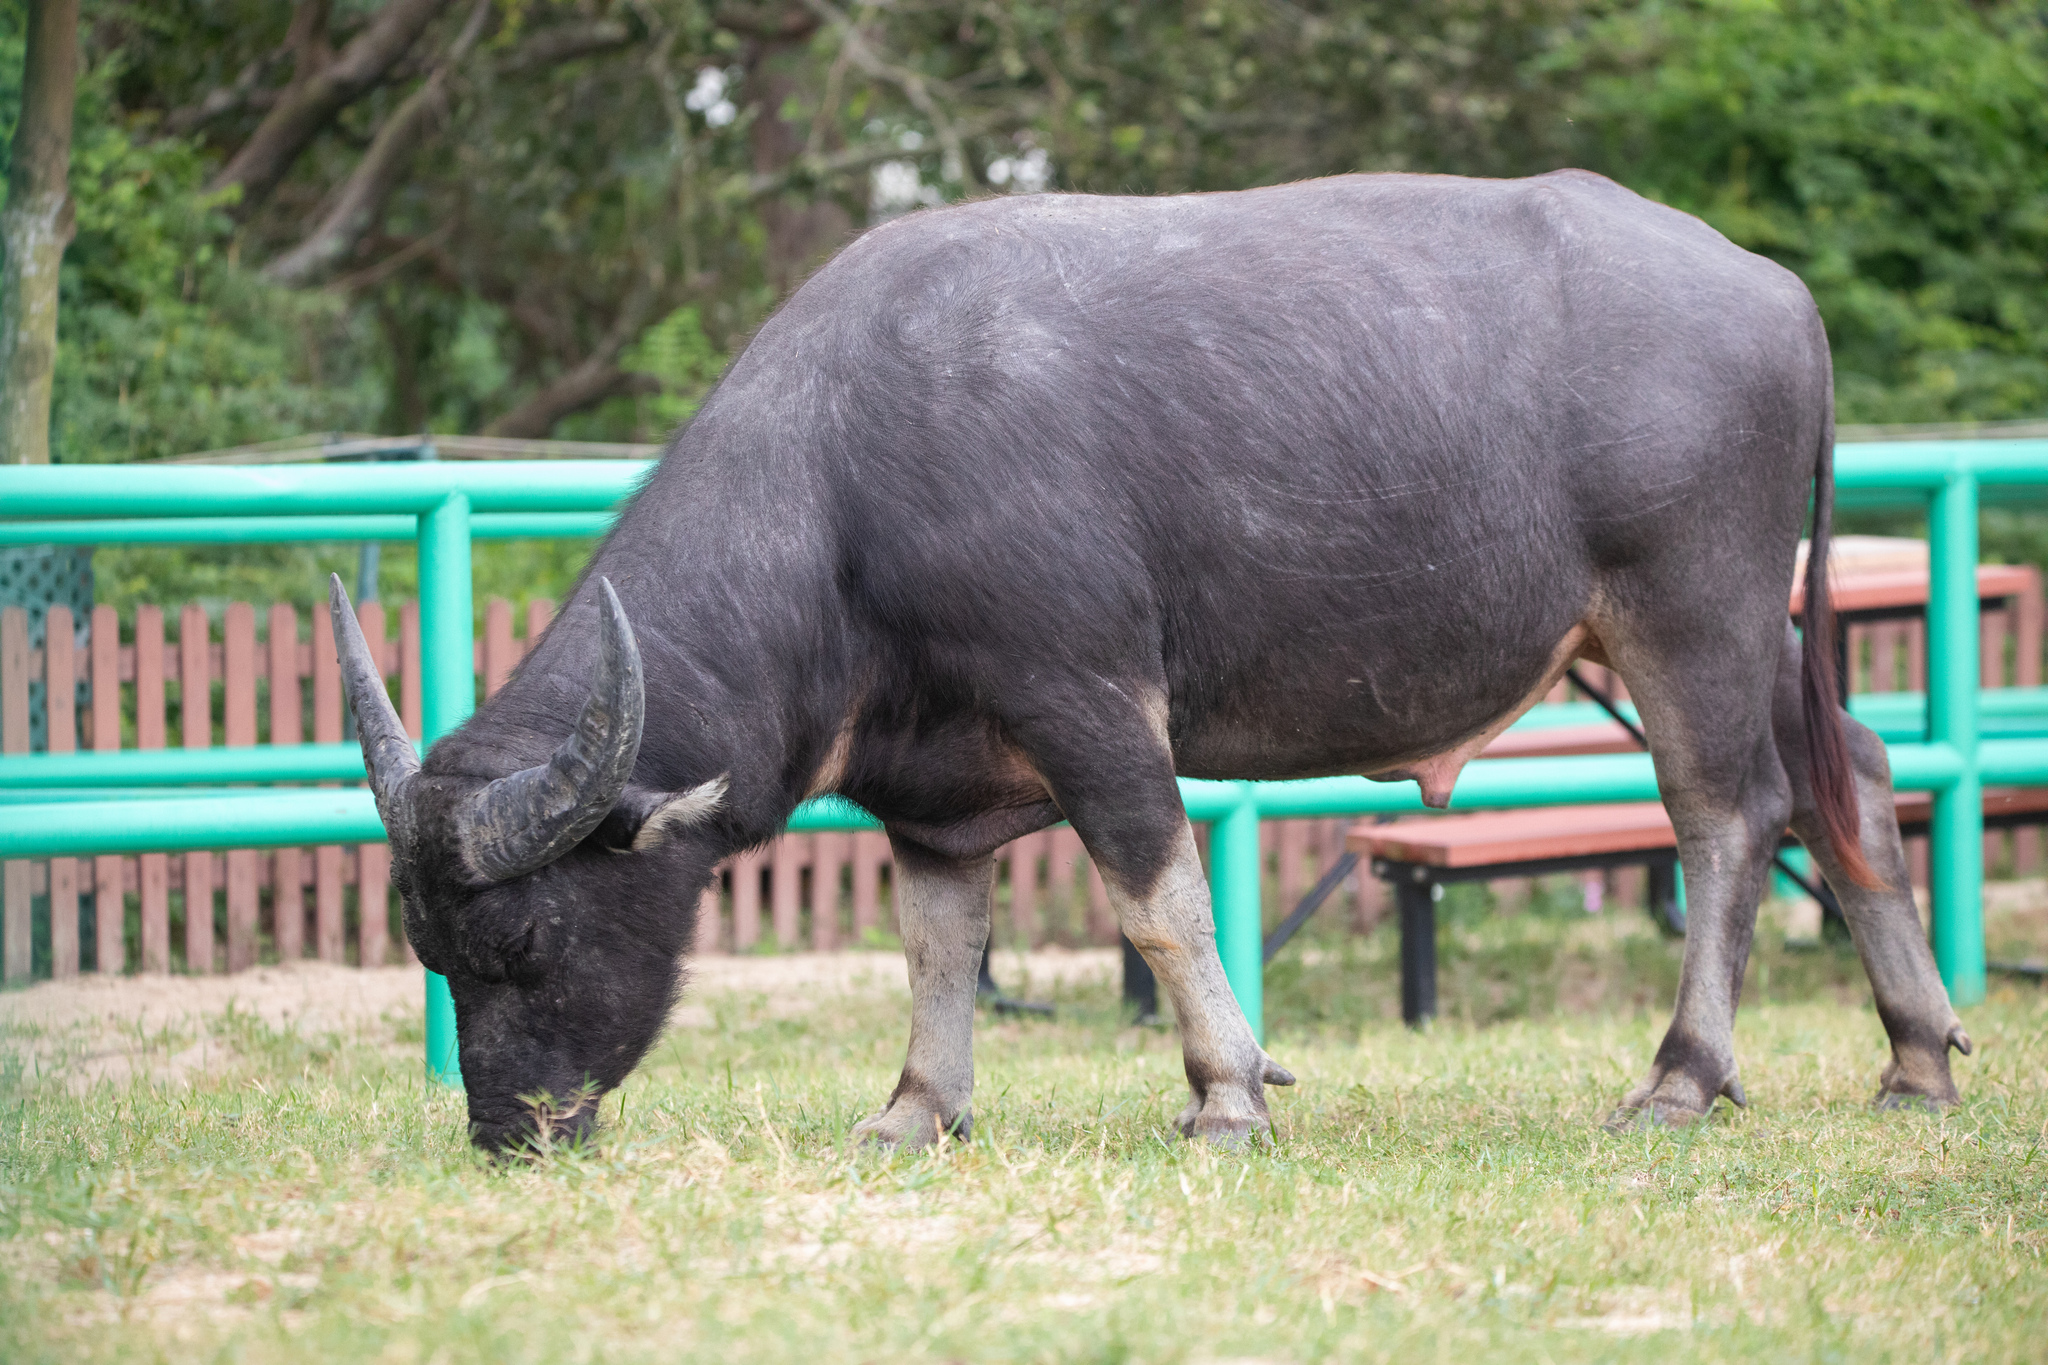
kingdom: Animalia
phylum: Chordata
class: Mammalia
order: Artiodactyla
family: Bovidae
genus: Bubalus
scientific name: Bubalus bubalis
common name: Water buffalo
